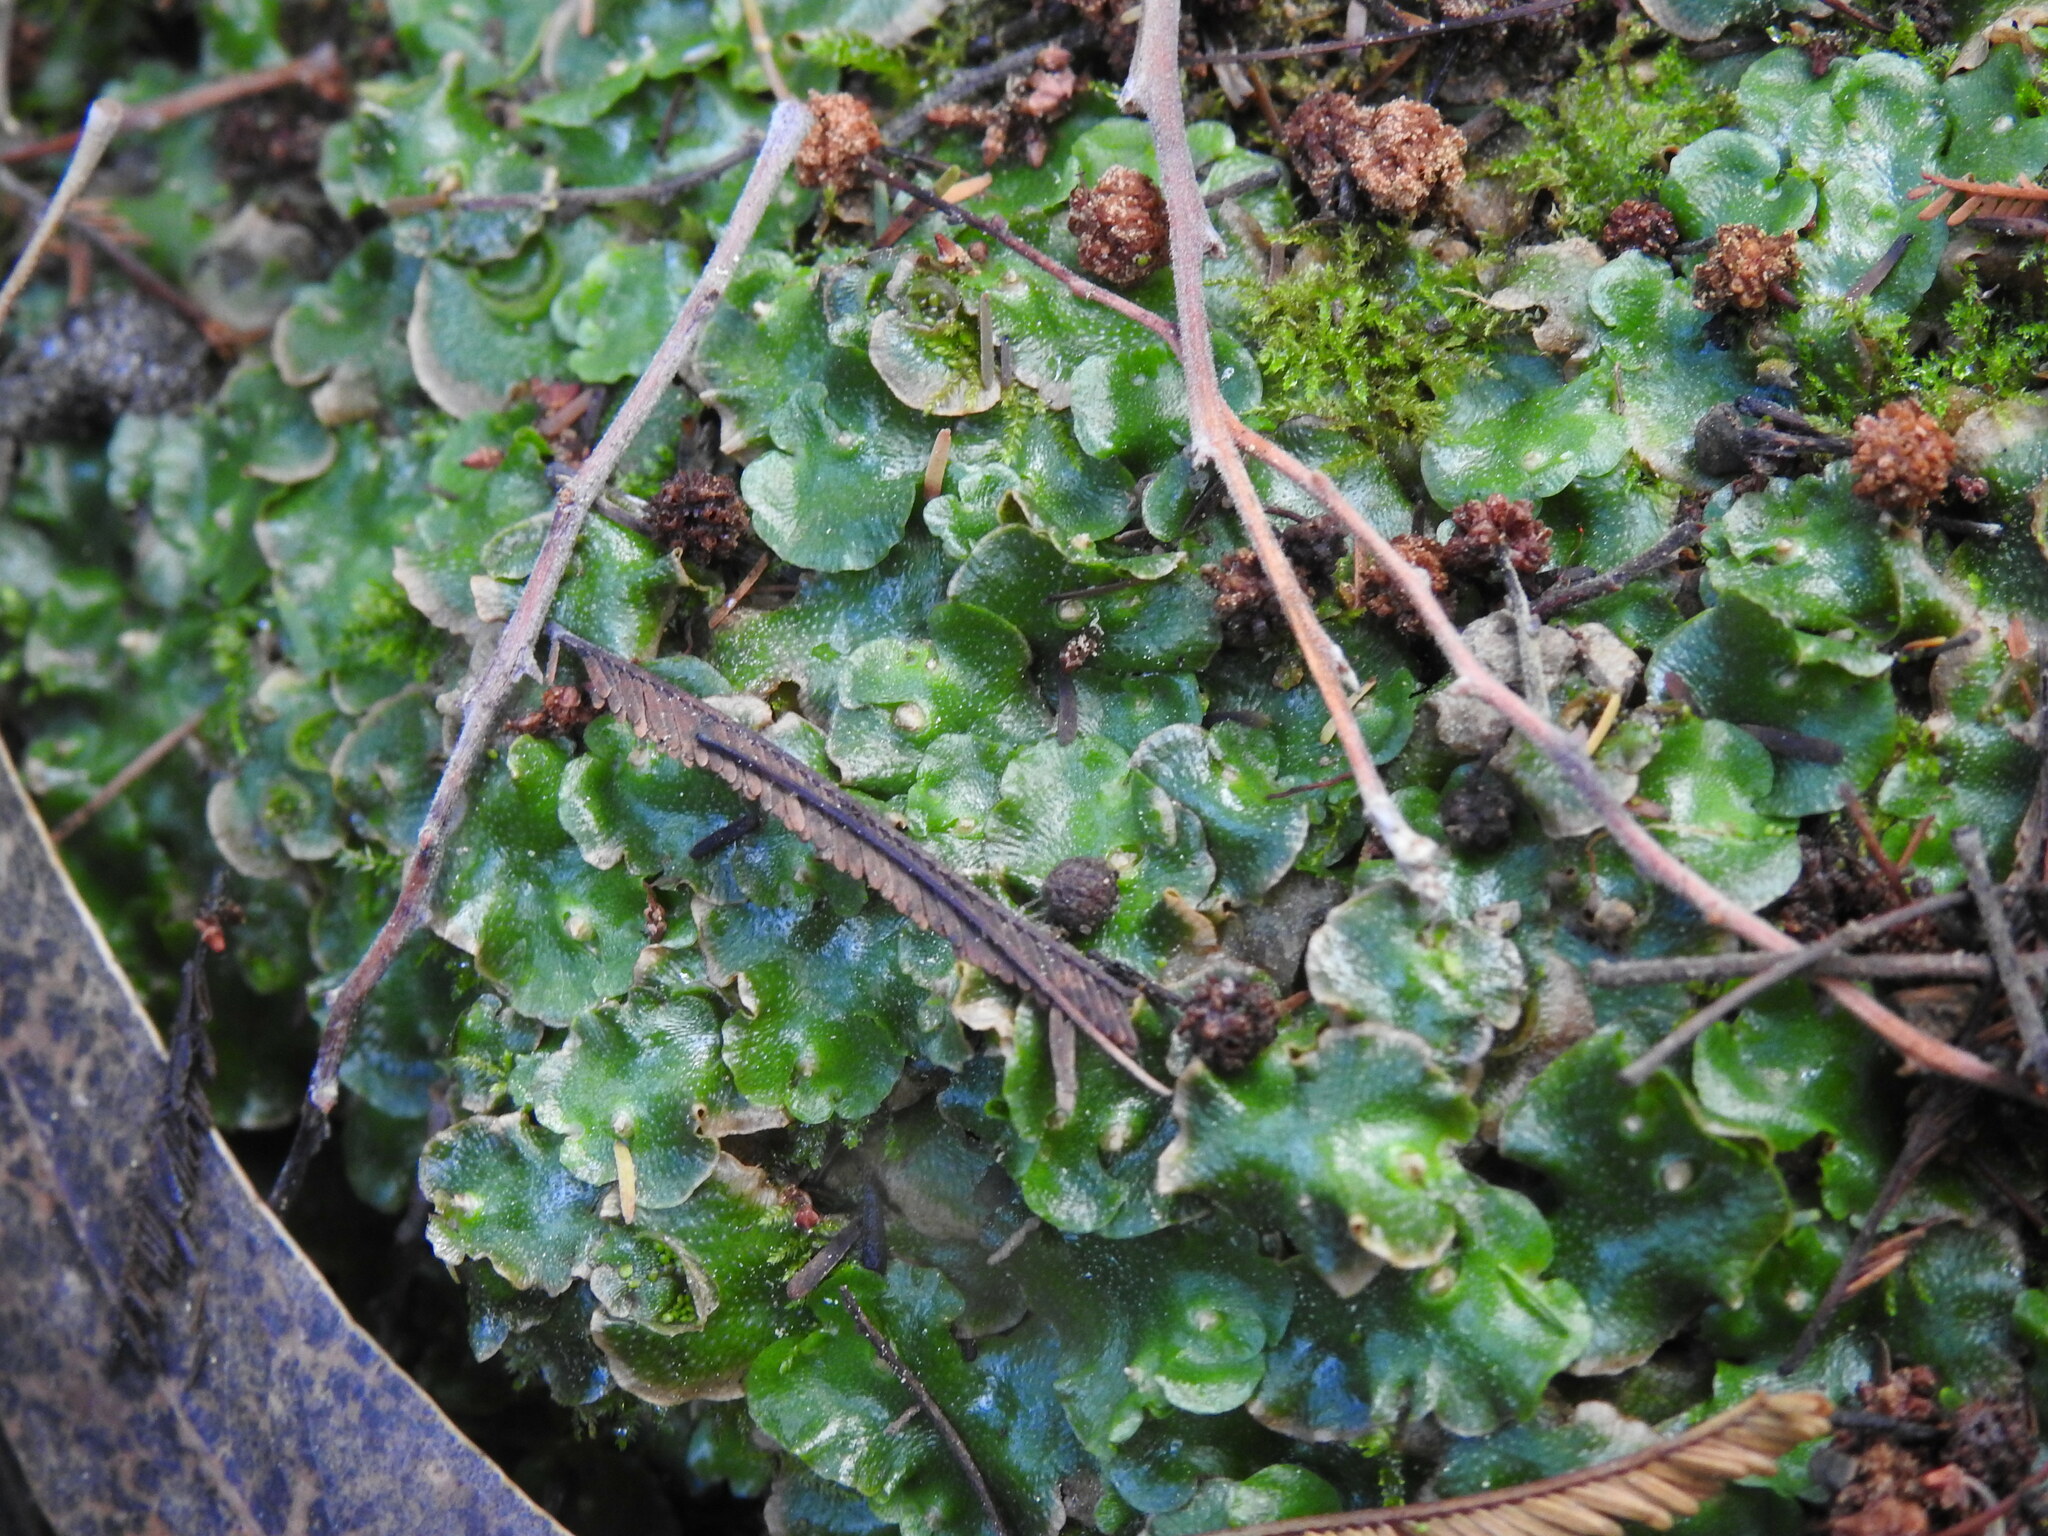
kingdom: Plantae
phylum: Marchantiophyta
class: Marchantiopsida
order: Lunulariales
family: Lunulariaceae
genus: Lunularia
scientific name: Lunularia cruciata
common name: Crescent-cup liverwort
